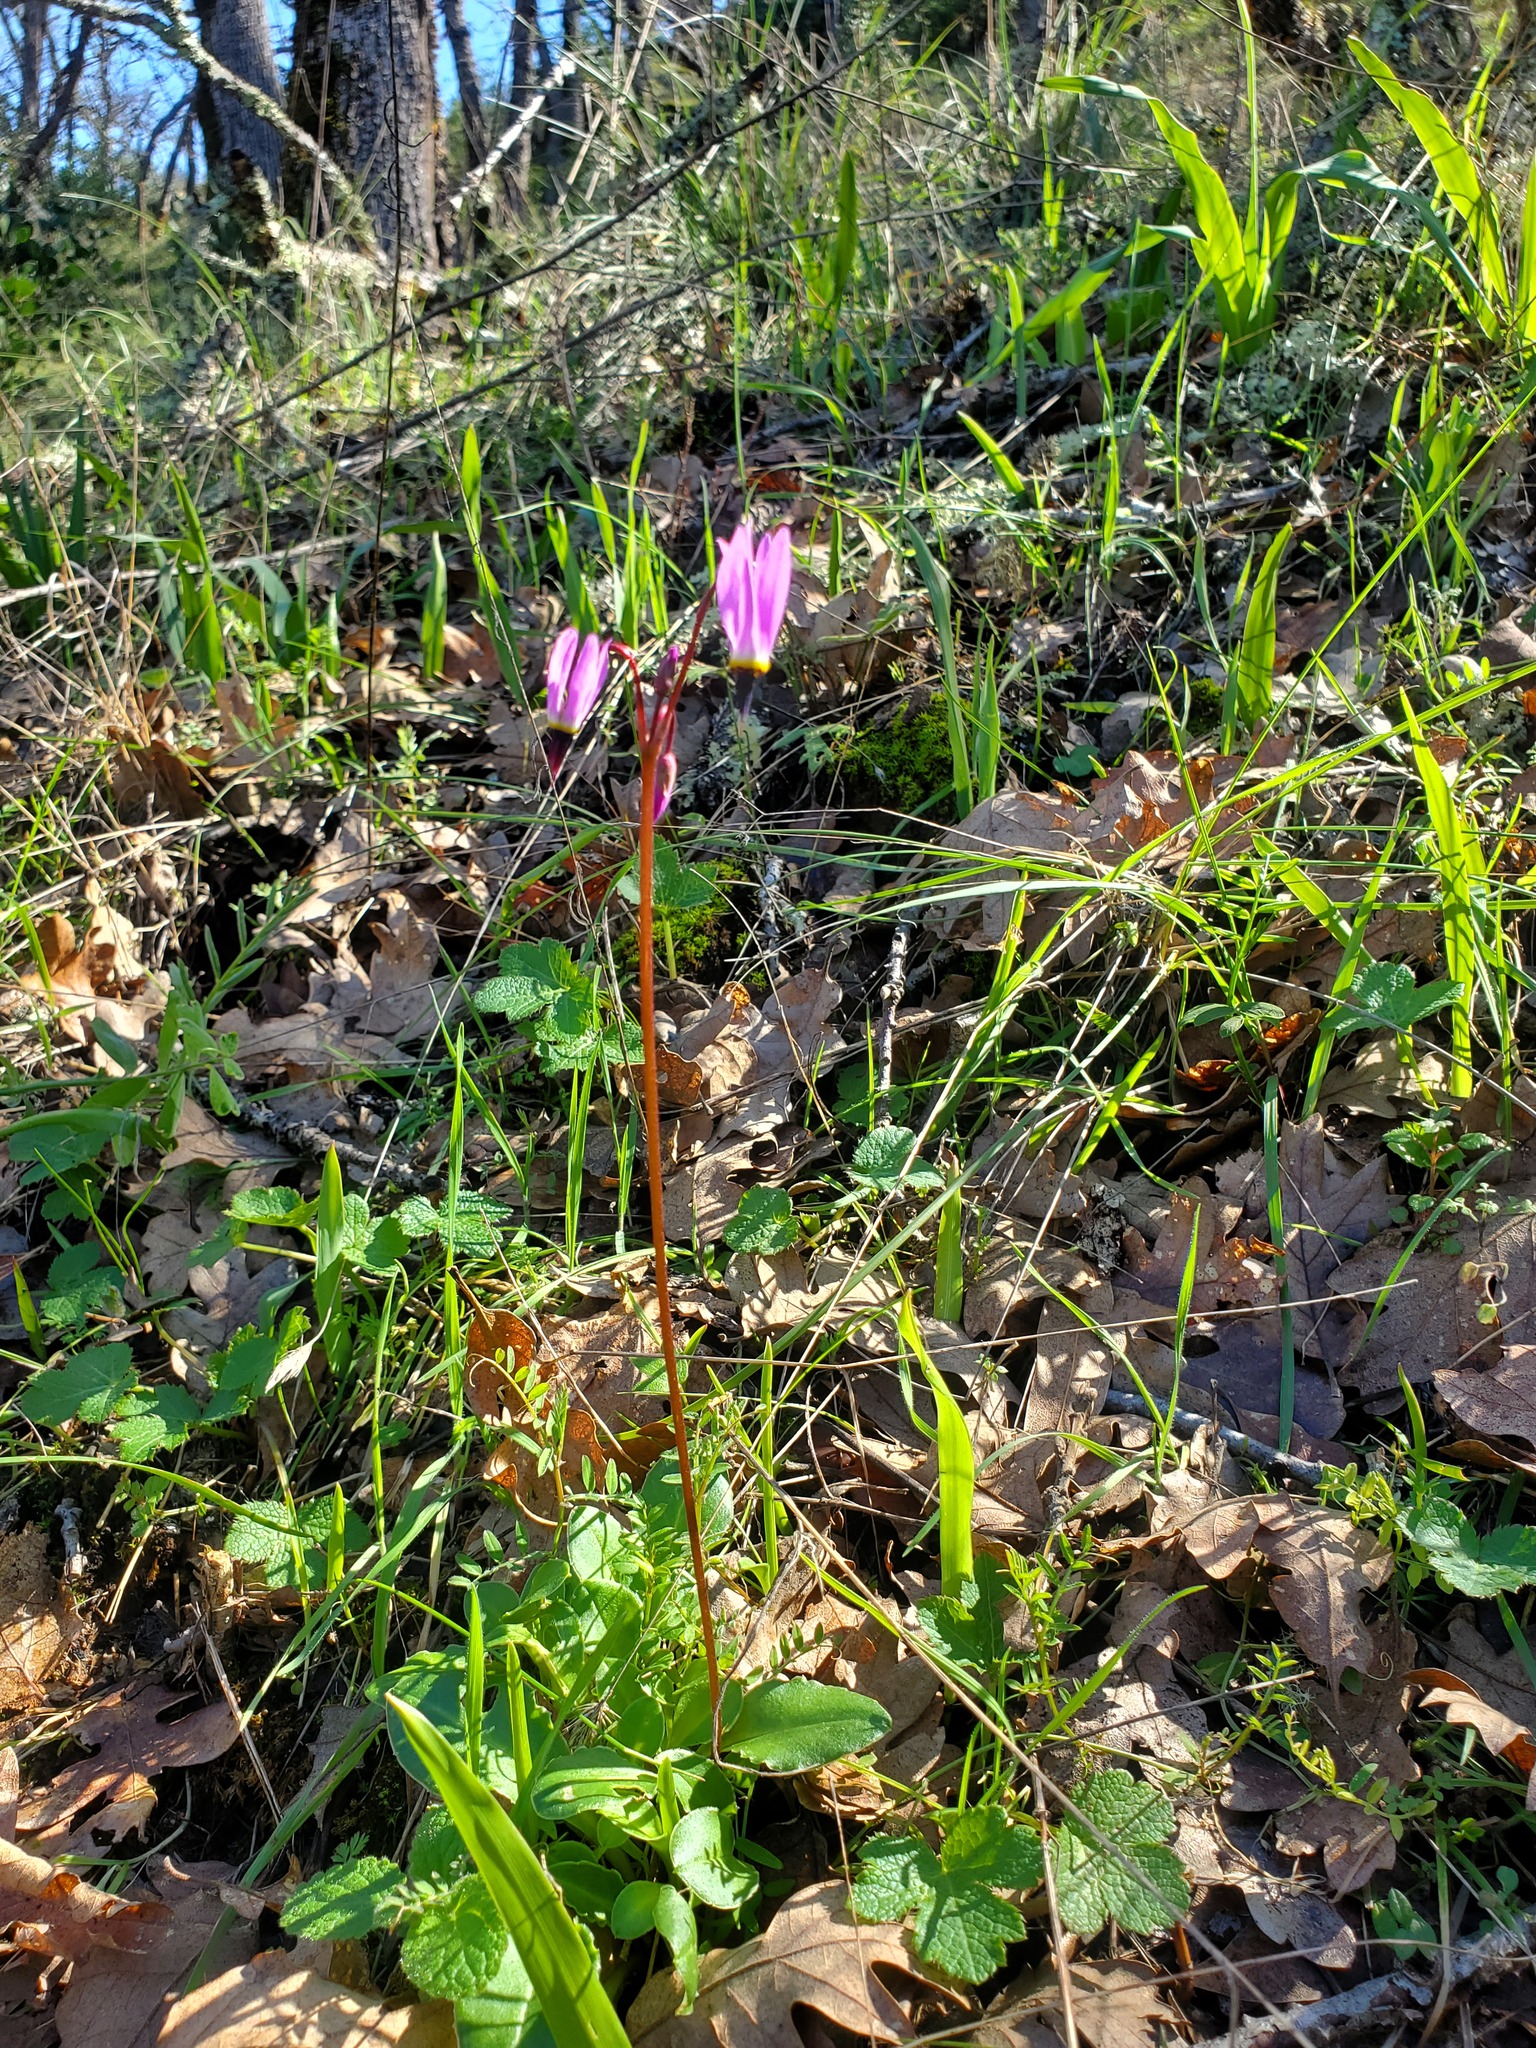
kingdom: Plantae
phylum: Tracheophyta
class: Magnoliopsida
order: Ericales
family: Primulaceae
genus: Dodecatheon
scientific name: Dodecatheon hendersonii
